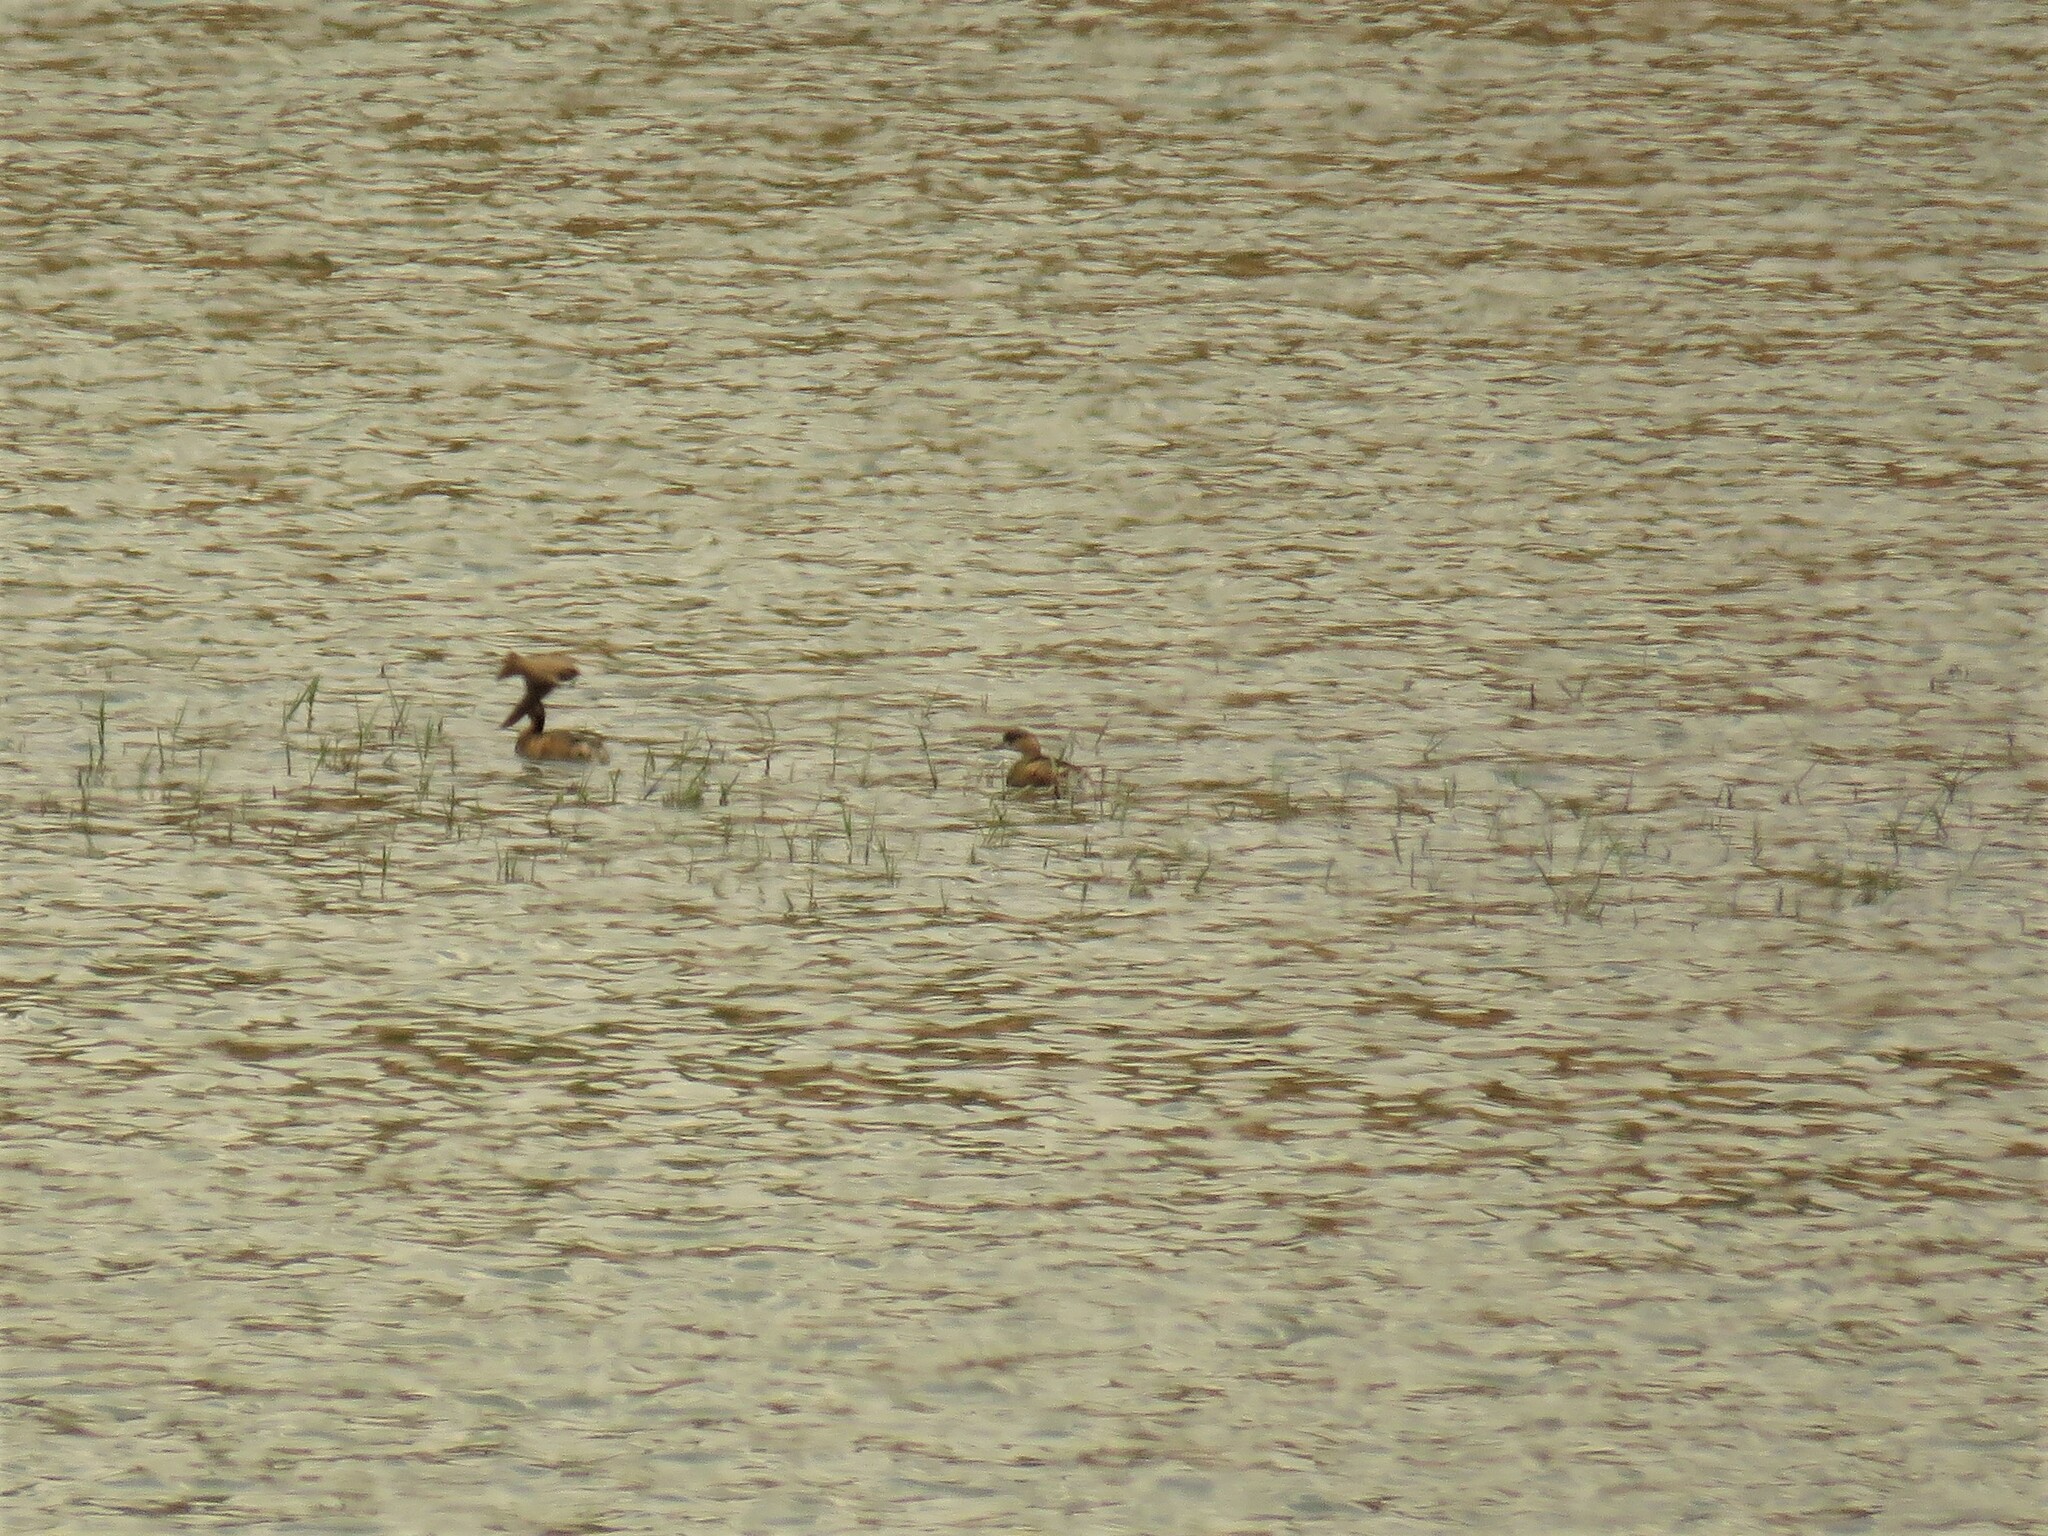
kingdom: Animalia
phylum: Chordata
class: Aves
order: Podicipediformes
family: Podicipedidae
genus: Tachybaptus
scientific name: Tachybaptus ruficollis
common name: Little grebe
